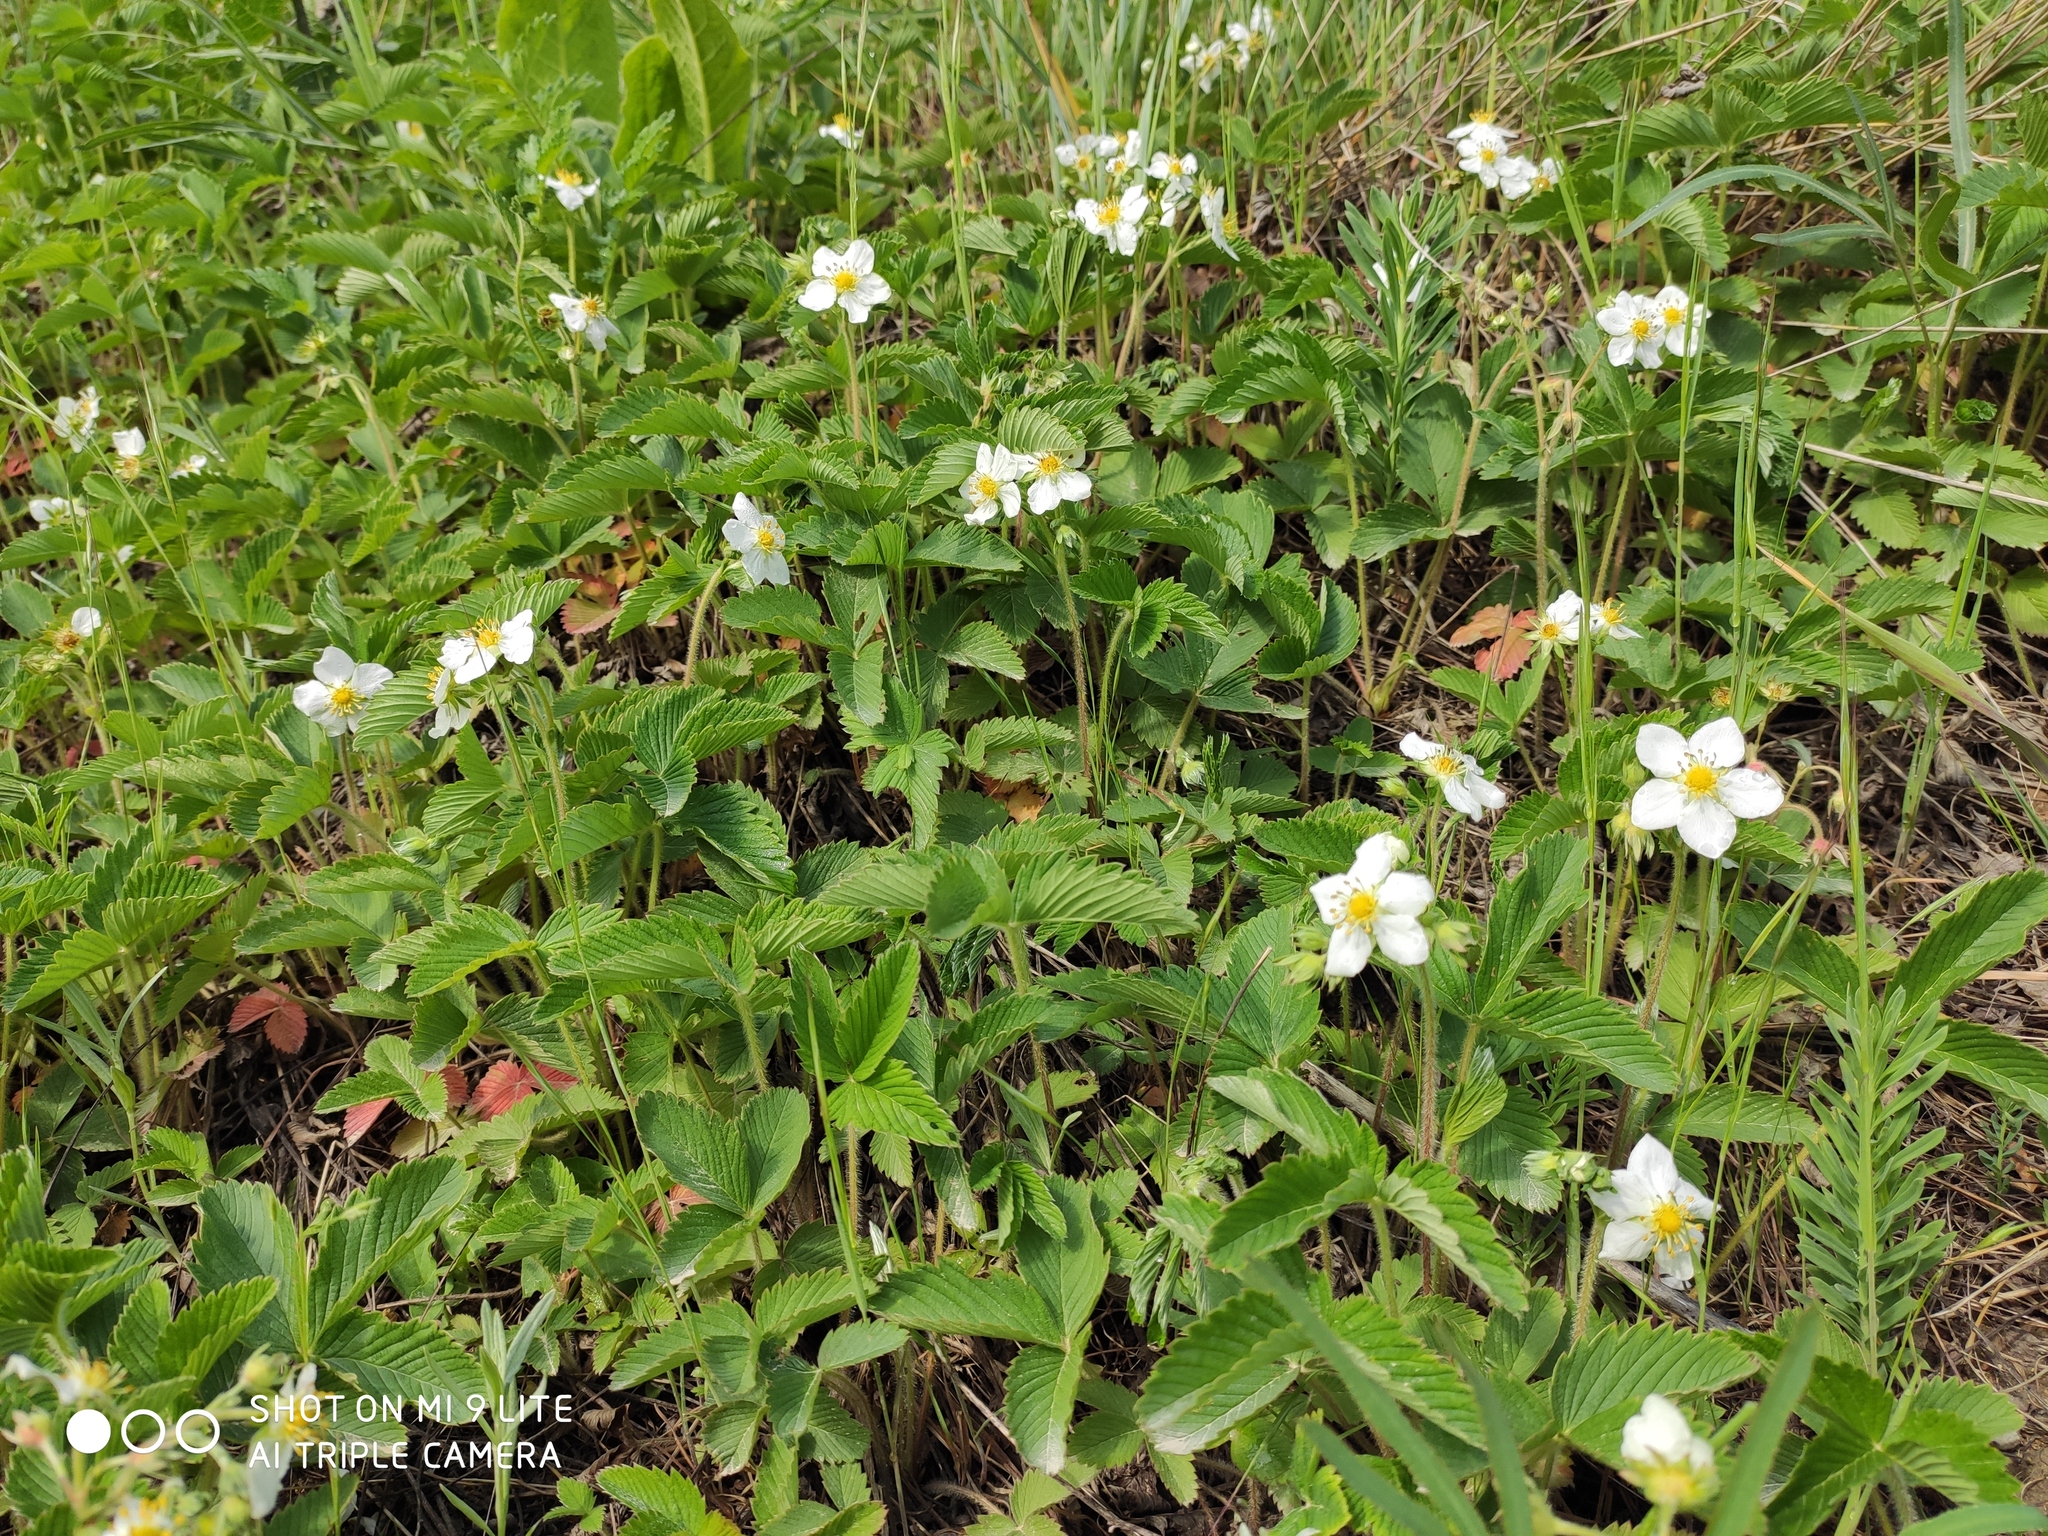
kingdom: Plantae
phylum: Tracheophyta
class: Magnoliopsida
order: Rosales
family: Rosaceae
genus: Fragaria
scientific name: Fragaria viridis
